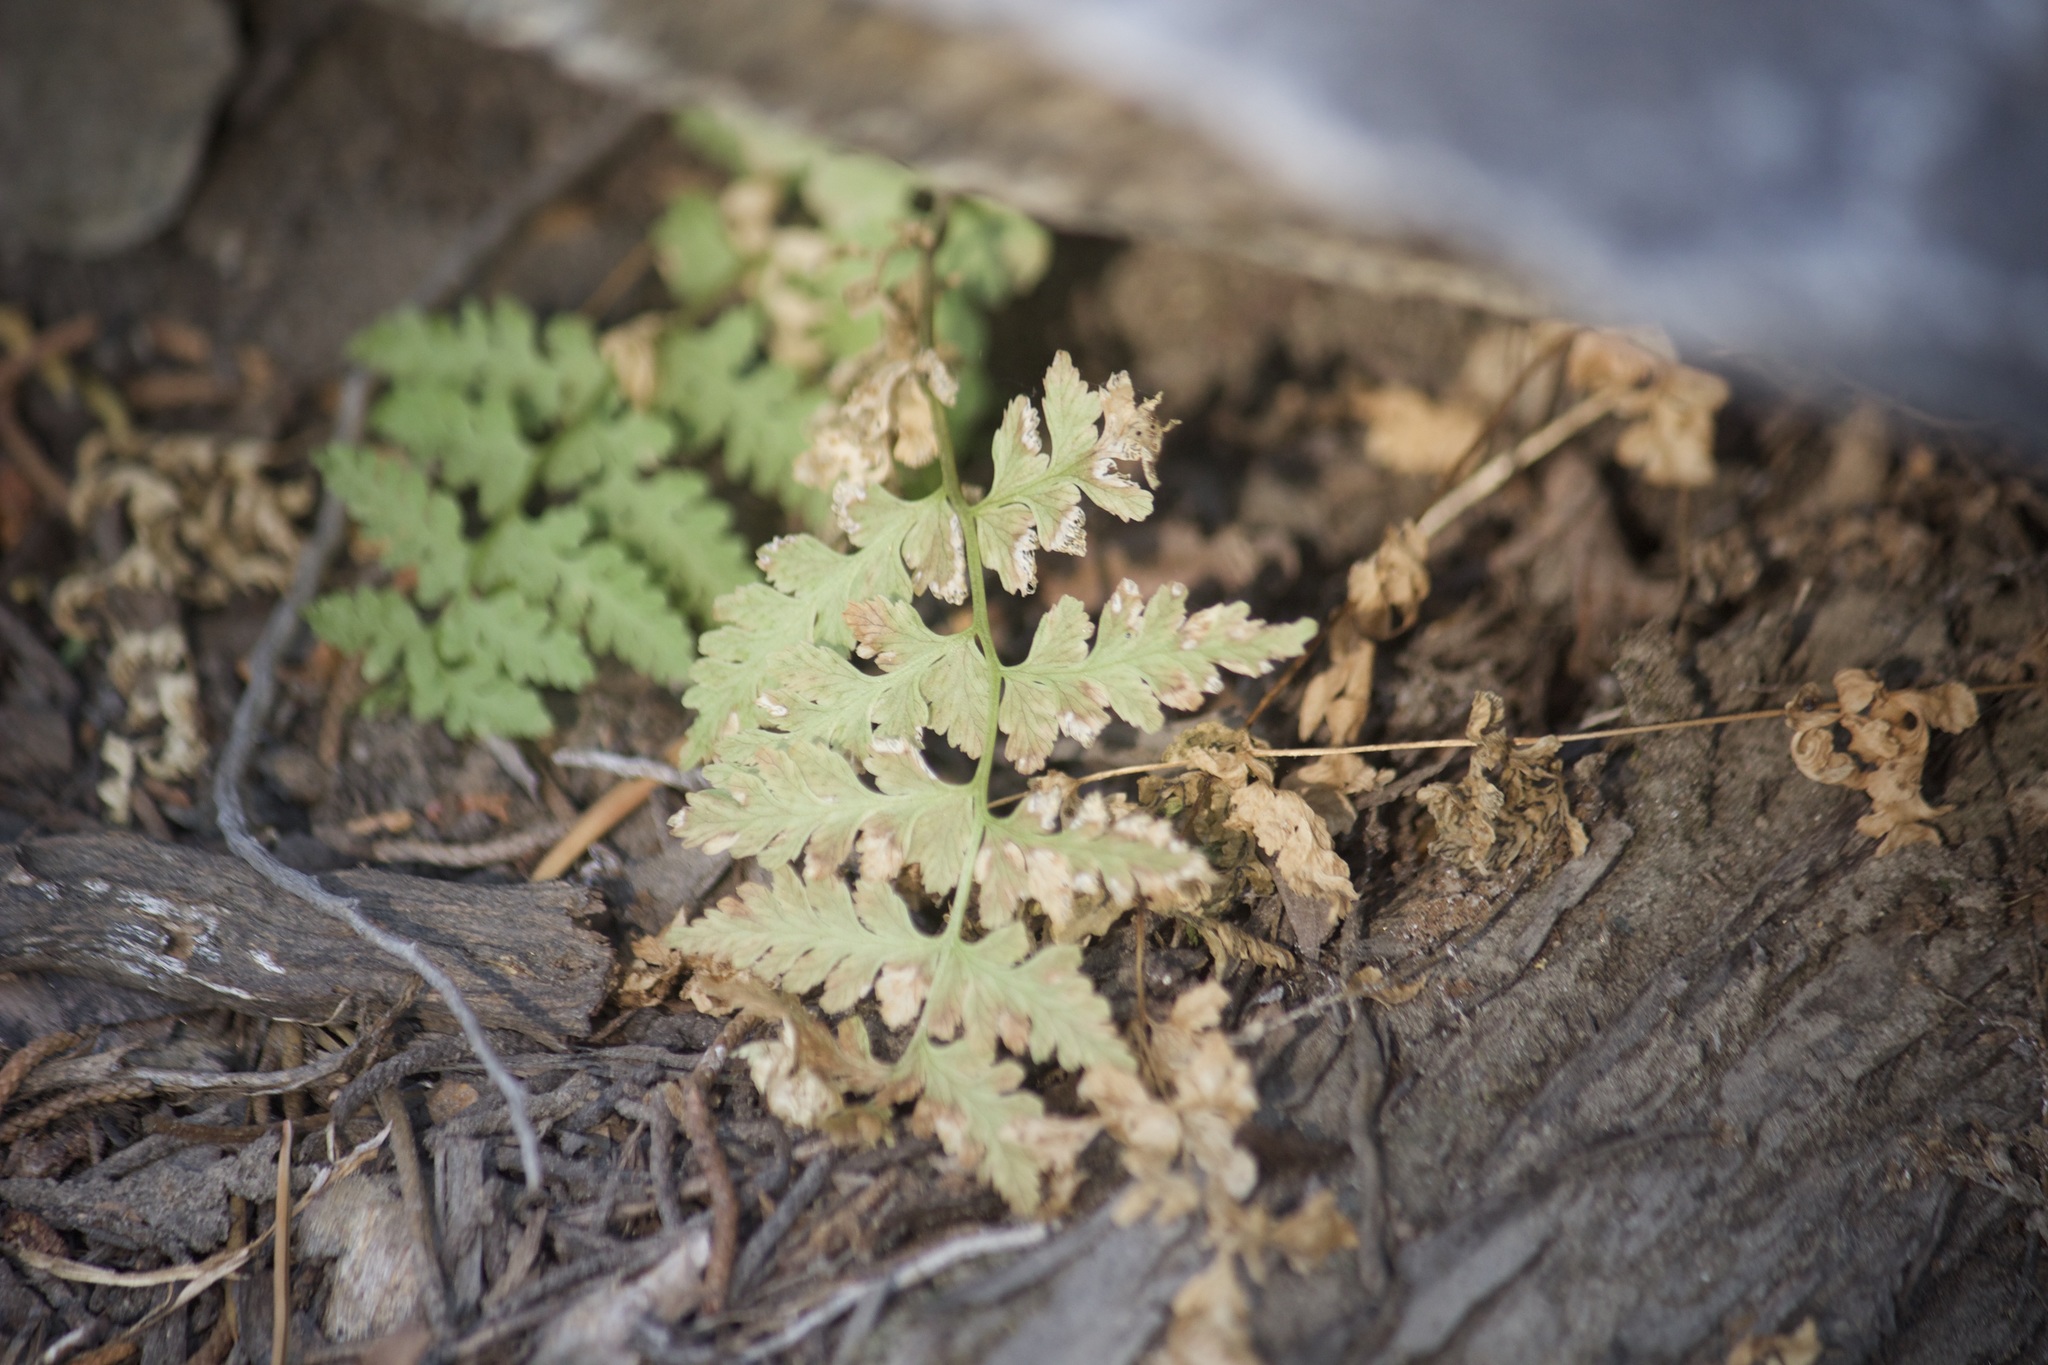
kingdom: Plantae
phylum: Tracheophyta
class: Polypodiopsida
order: Polypodiales
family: Cystopteridaceae
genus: Cystopteris
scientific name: Cystopteris fragilis
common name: Brittle bladder fern
